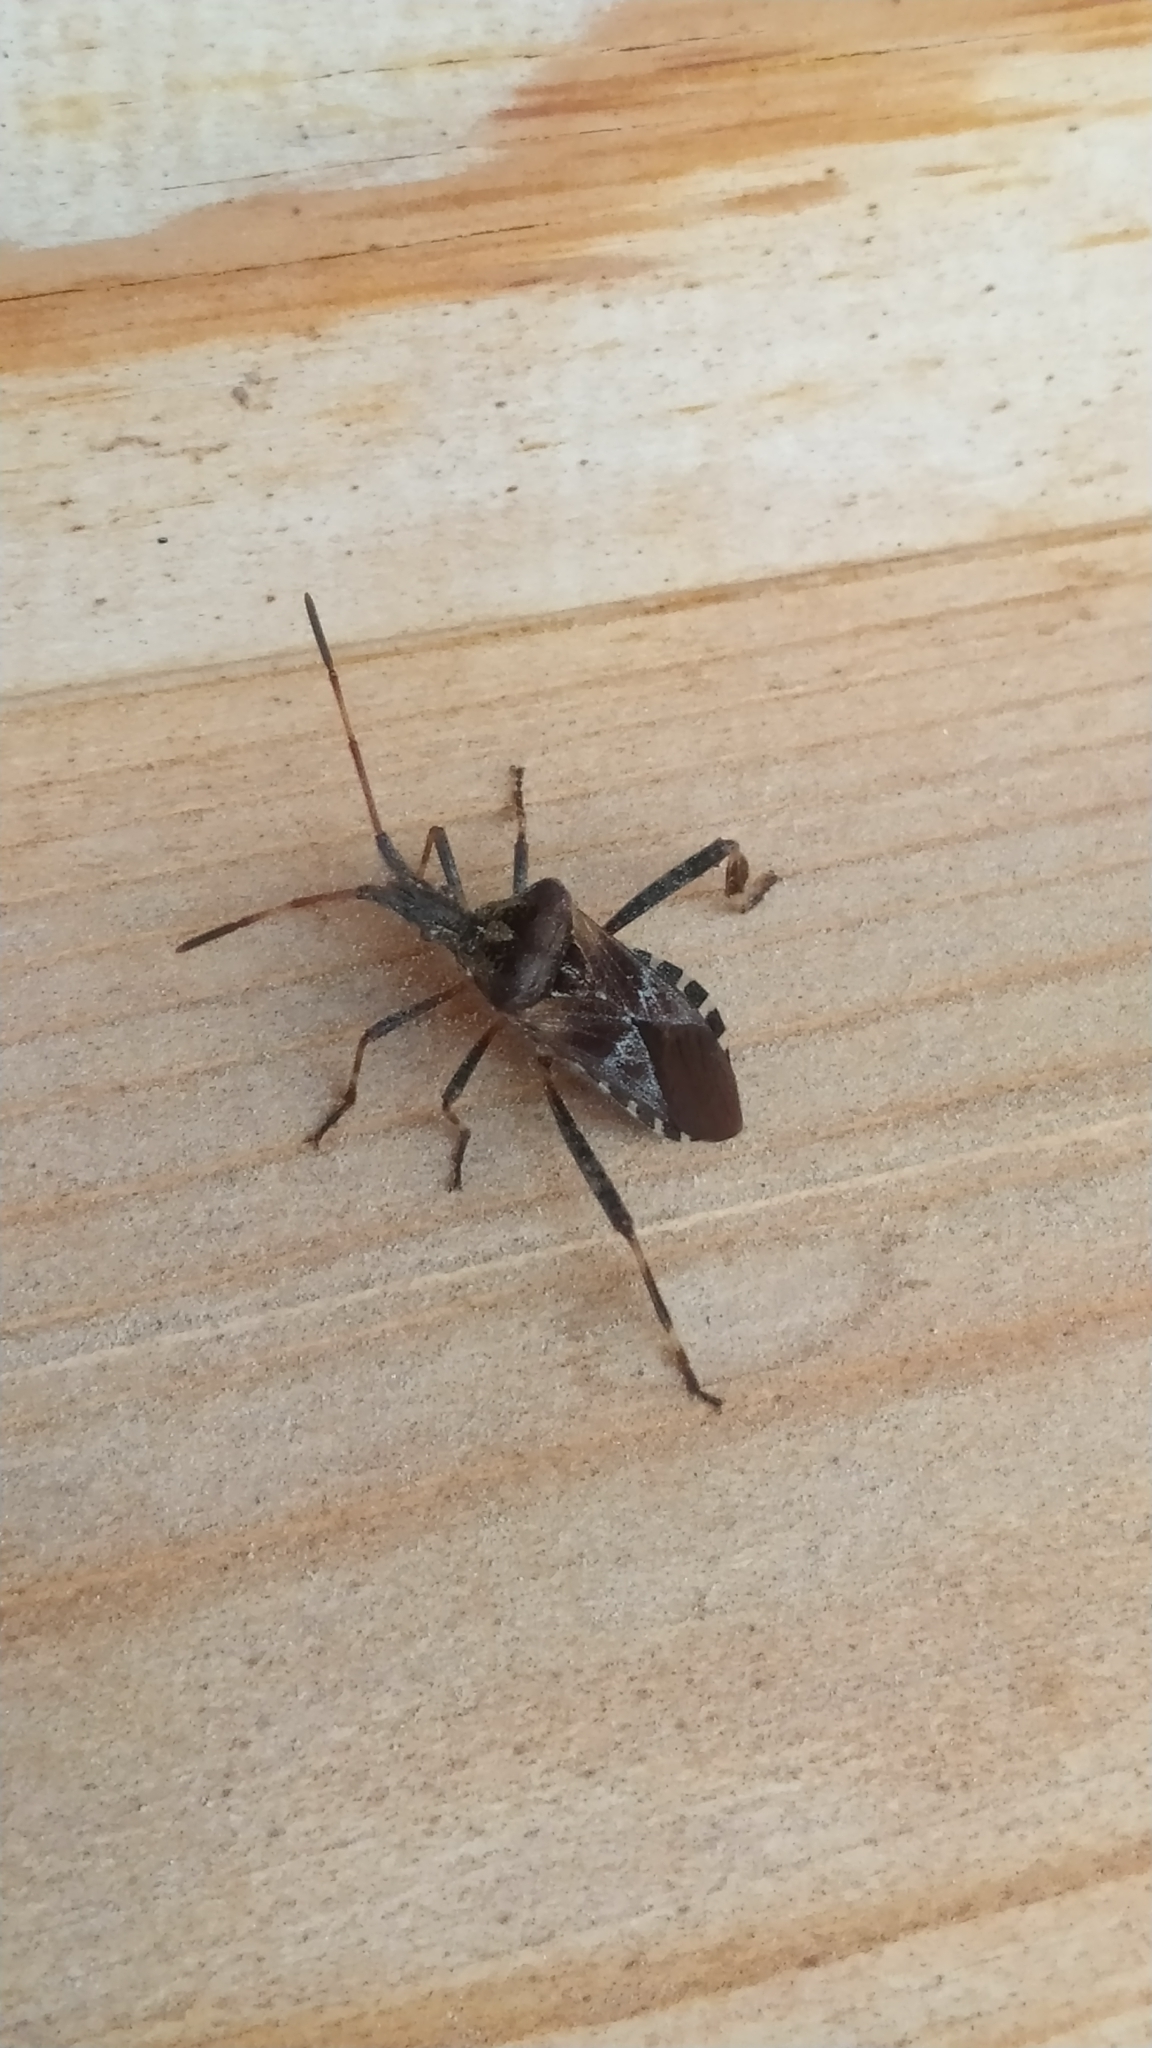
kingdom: Animalia
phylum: Arthropoda
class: Insecta
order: Hemiptera
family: Coreidae
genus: Leptoglossus
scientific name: Leptoglossus occidentalis
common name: Western conifer-seed bug
